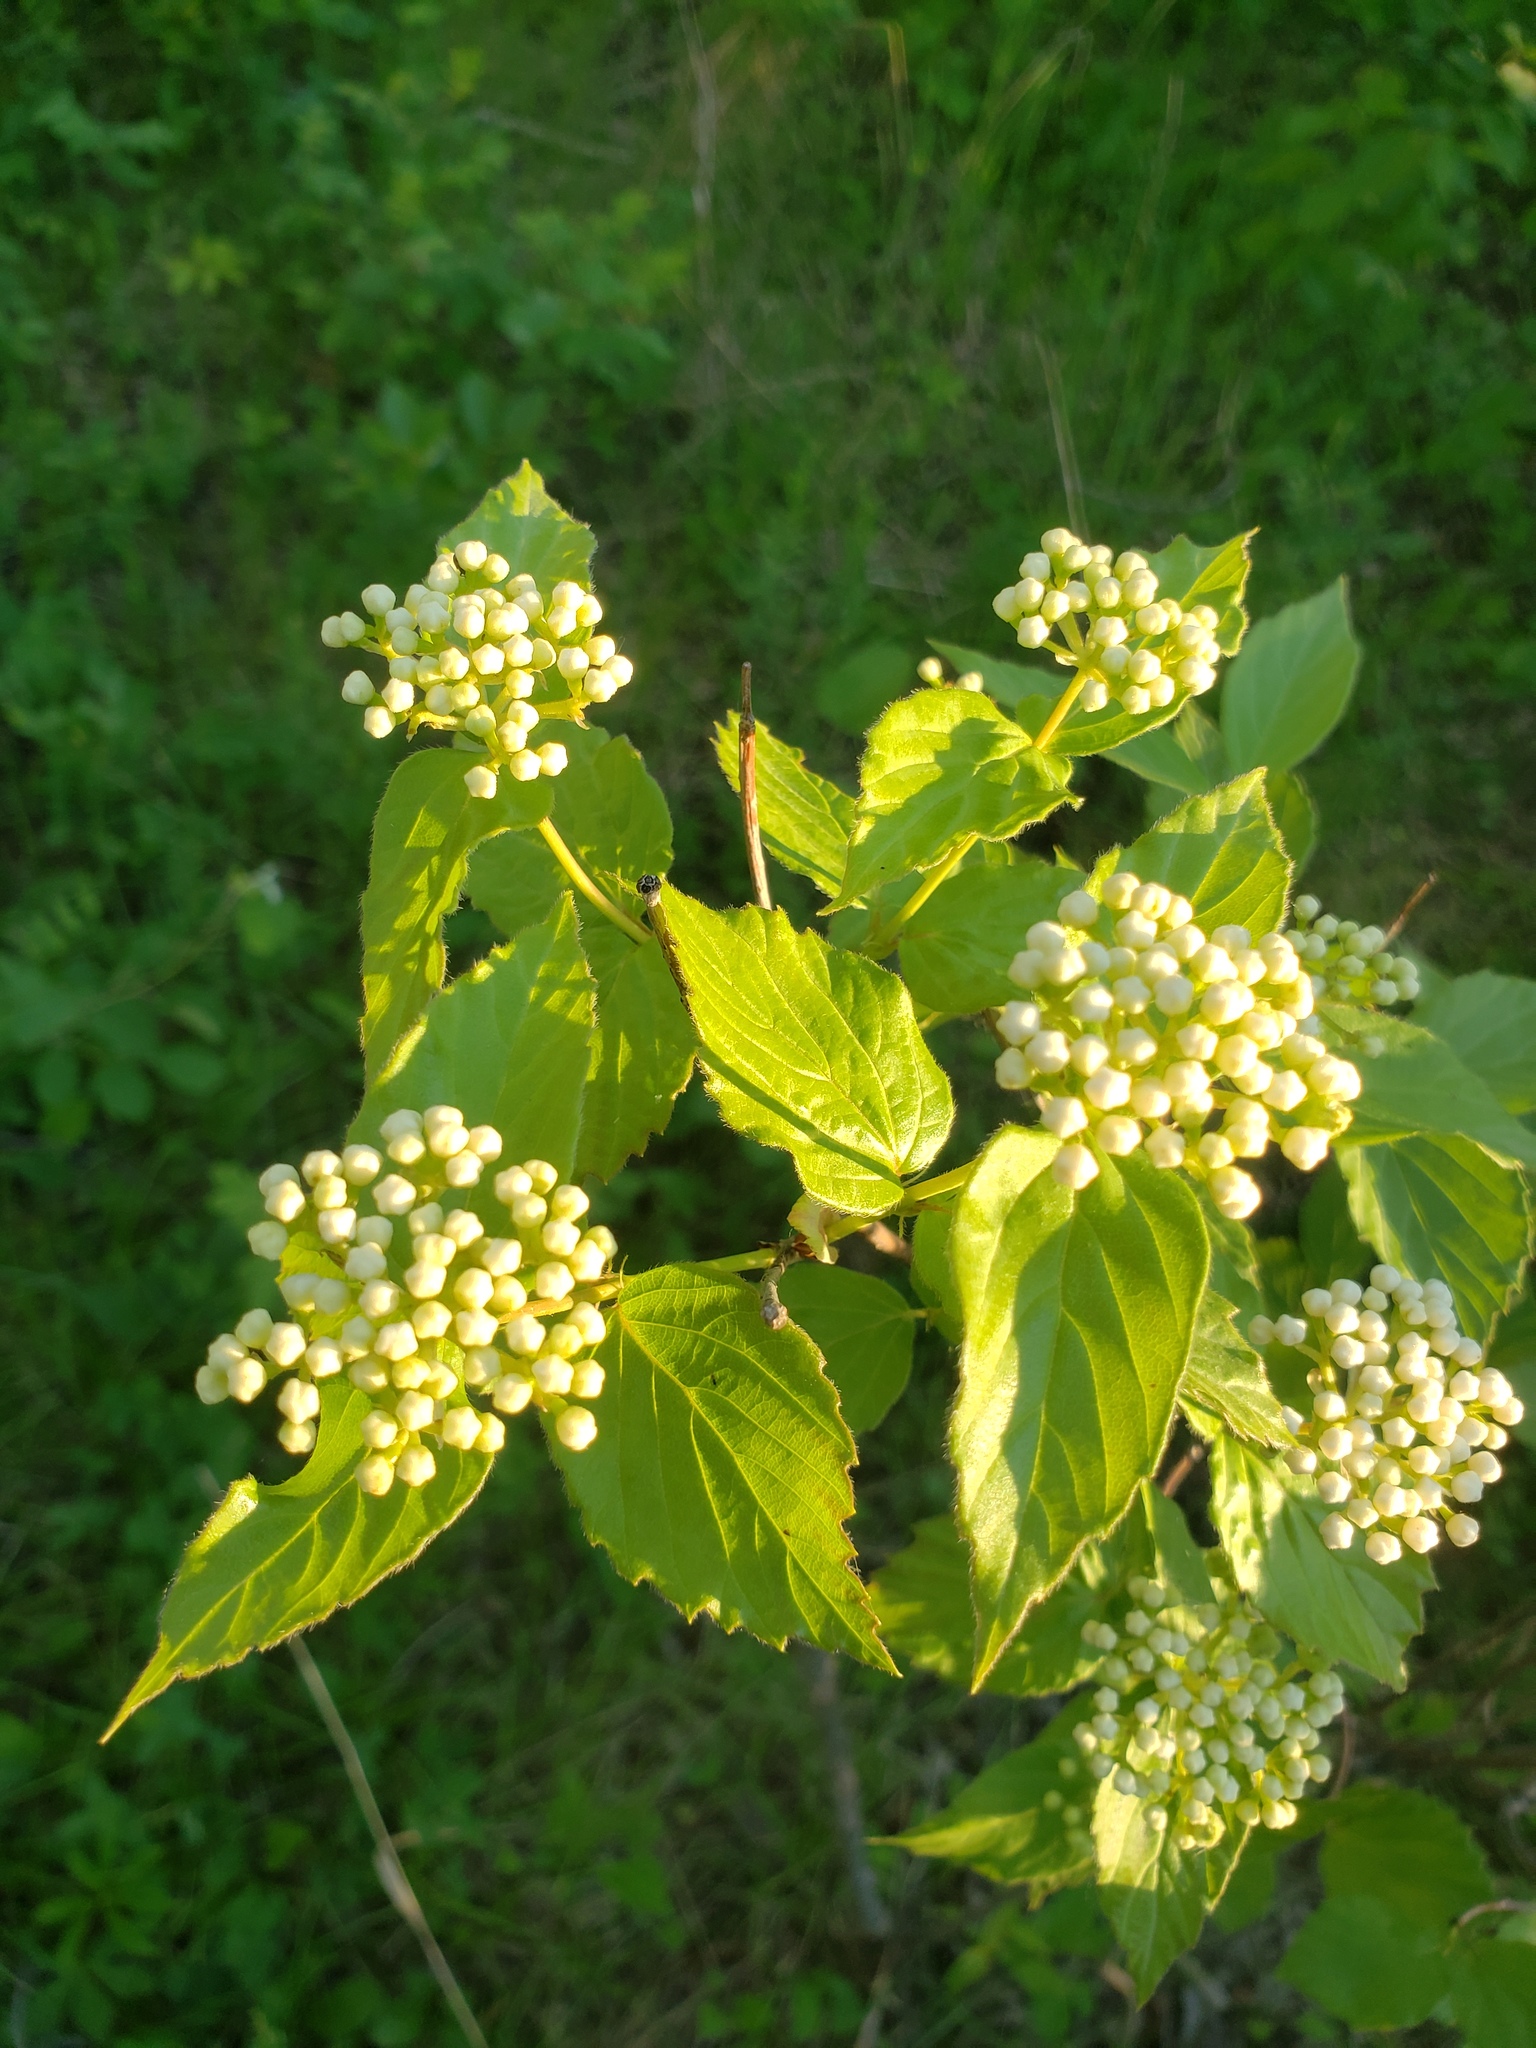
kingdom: Plantae
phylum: Tracheophyta
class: Magnoliopsida
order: Dipsacales
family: Viburnaceae
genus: Viburnum
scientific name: Viburnum rafinesqueanum
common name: Downy arrow-wood
